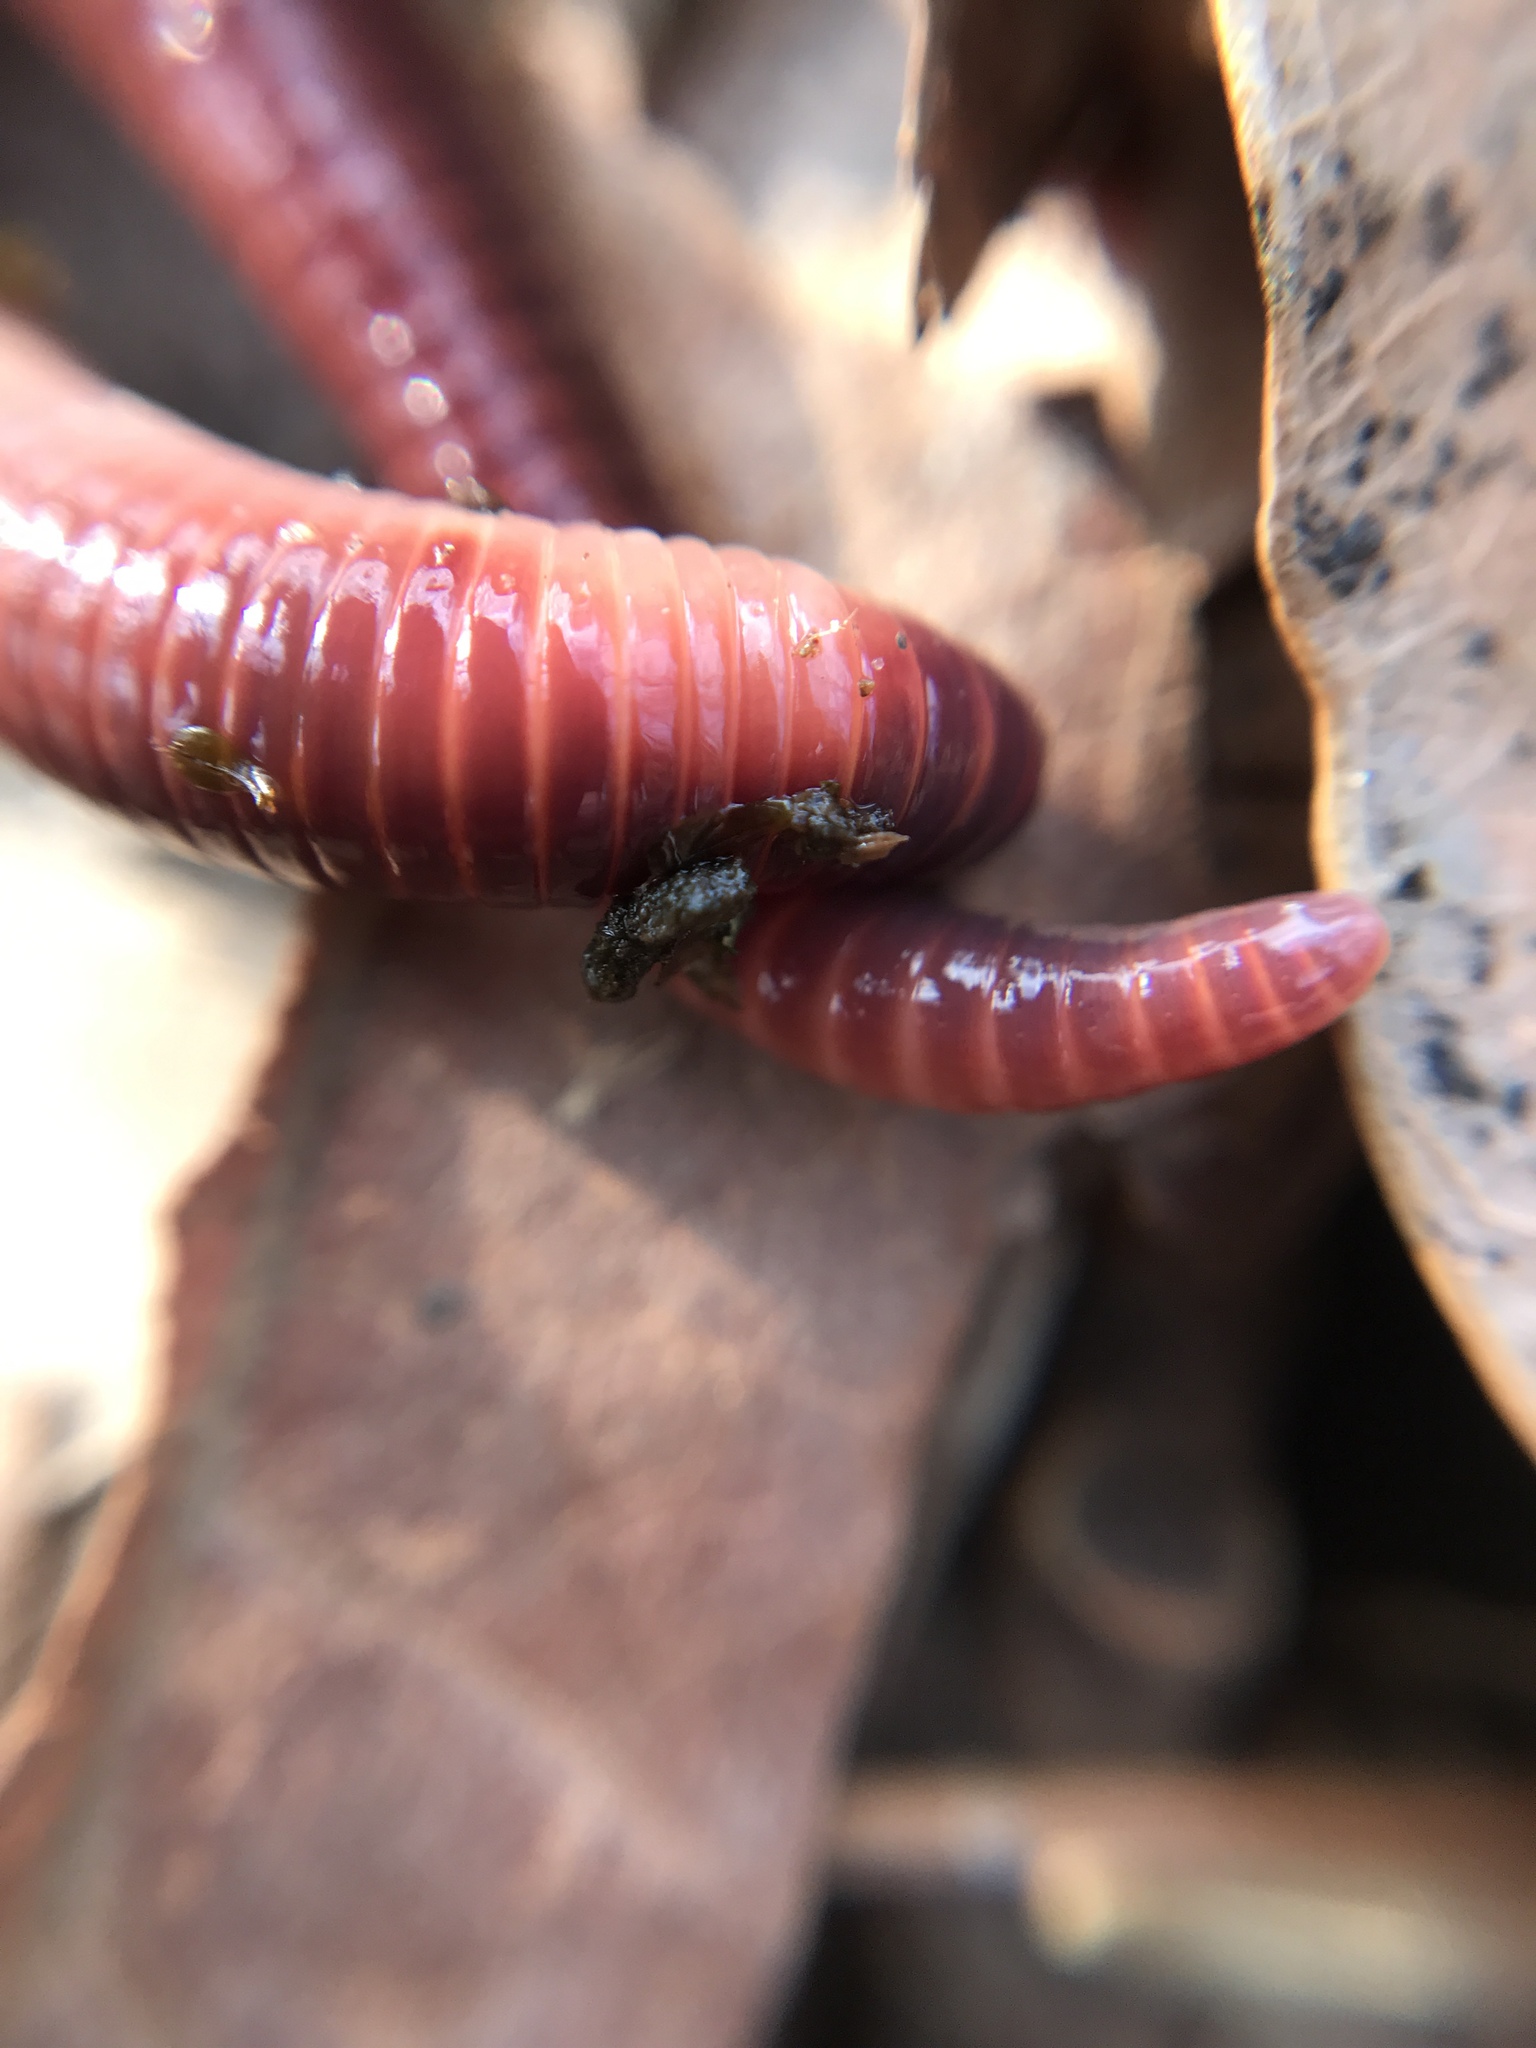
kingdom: Animalia
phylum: Annelida
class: Clitellata
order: Crassiclitellata
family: Lumbricidae
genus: Lumbricus
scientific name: Lumbricus terrestris
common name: Common earthworm
